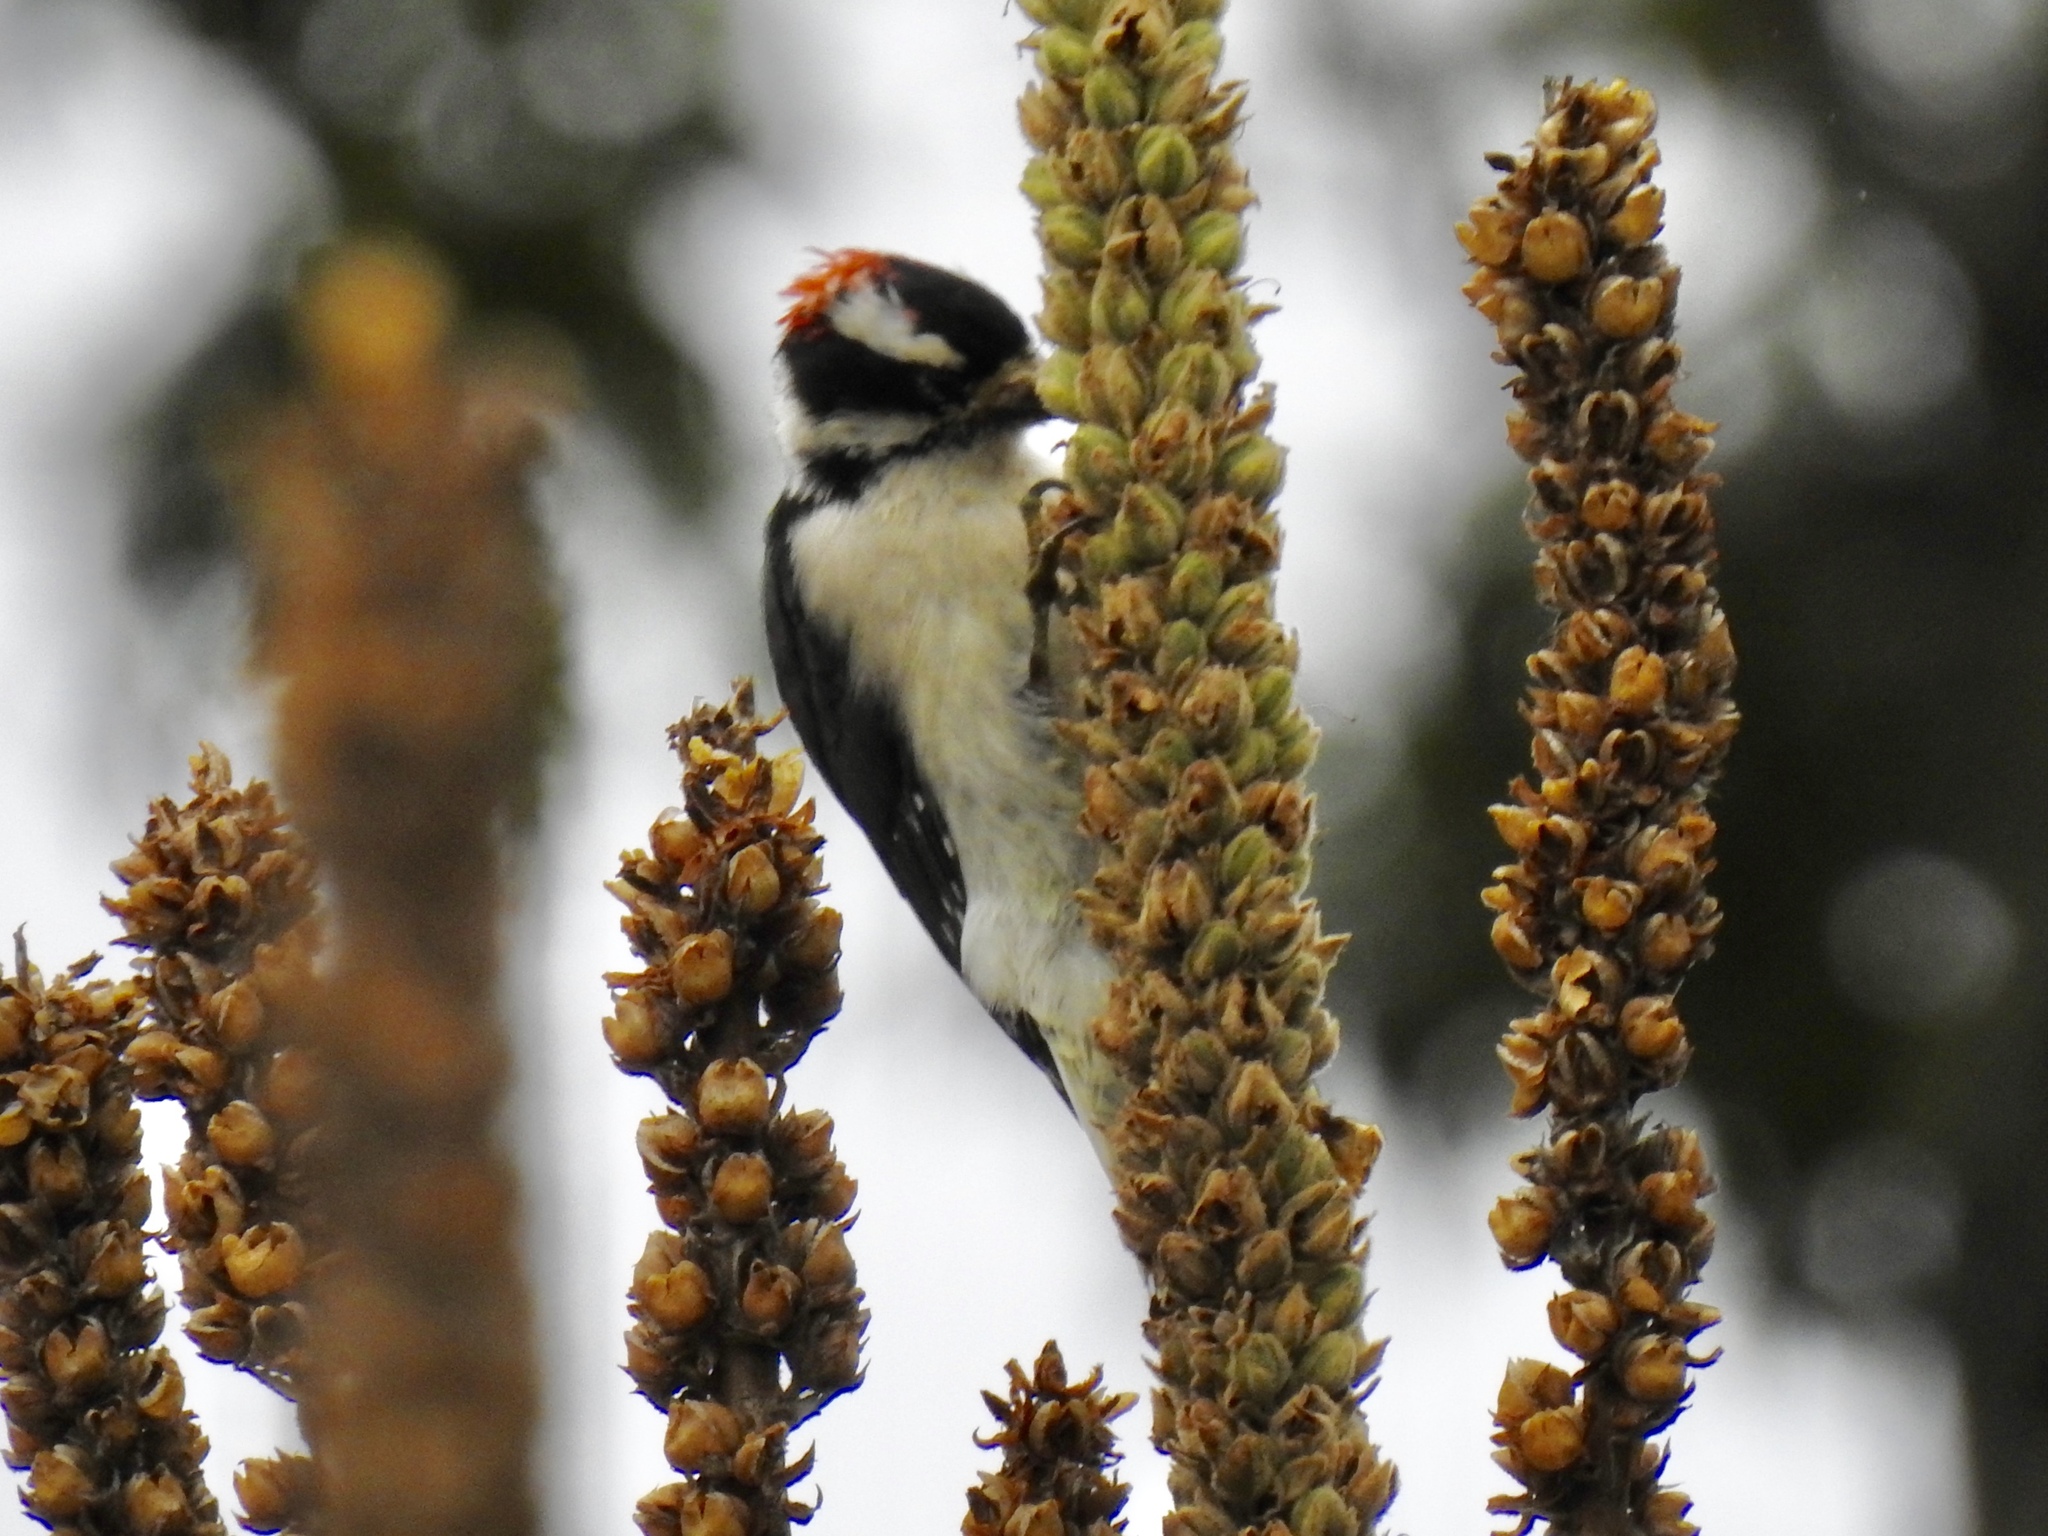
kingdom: Animalia
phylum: Chordata
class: Aves
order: Piciformes
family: Picidae
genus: Dryobates
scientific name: Dryobates pubescens
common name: Downy woodpecker
